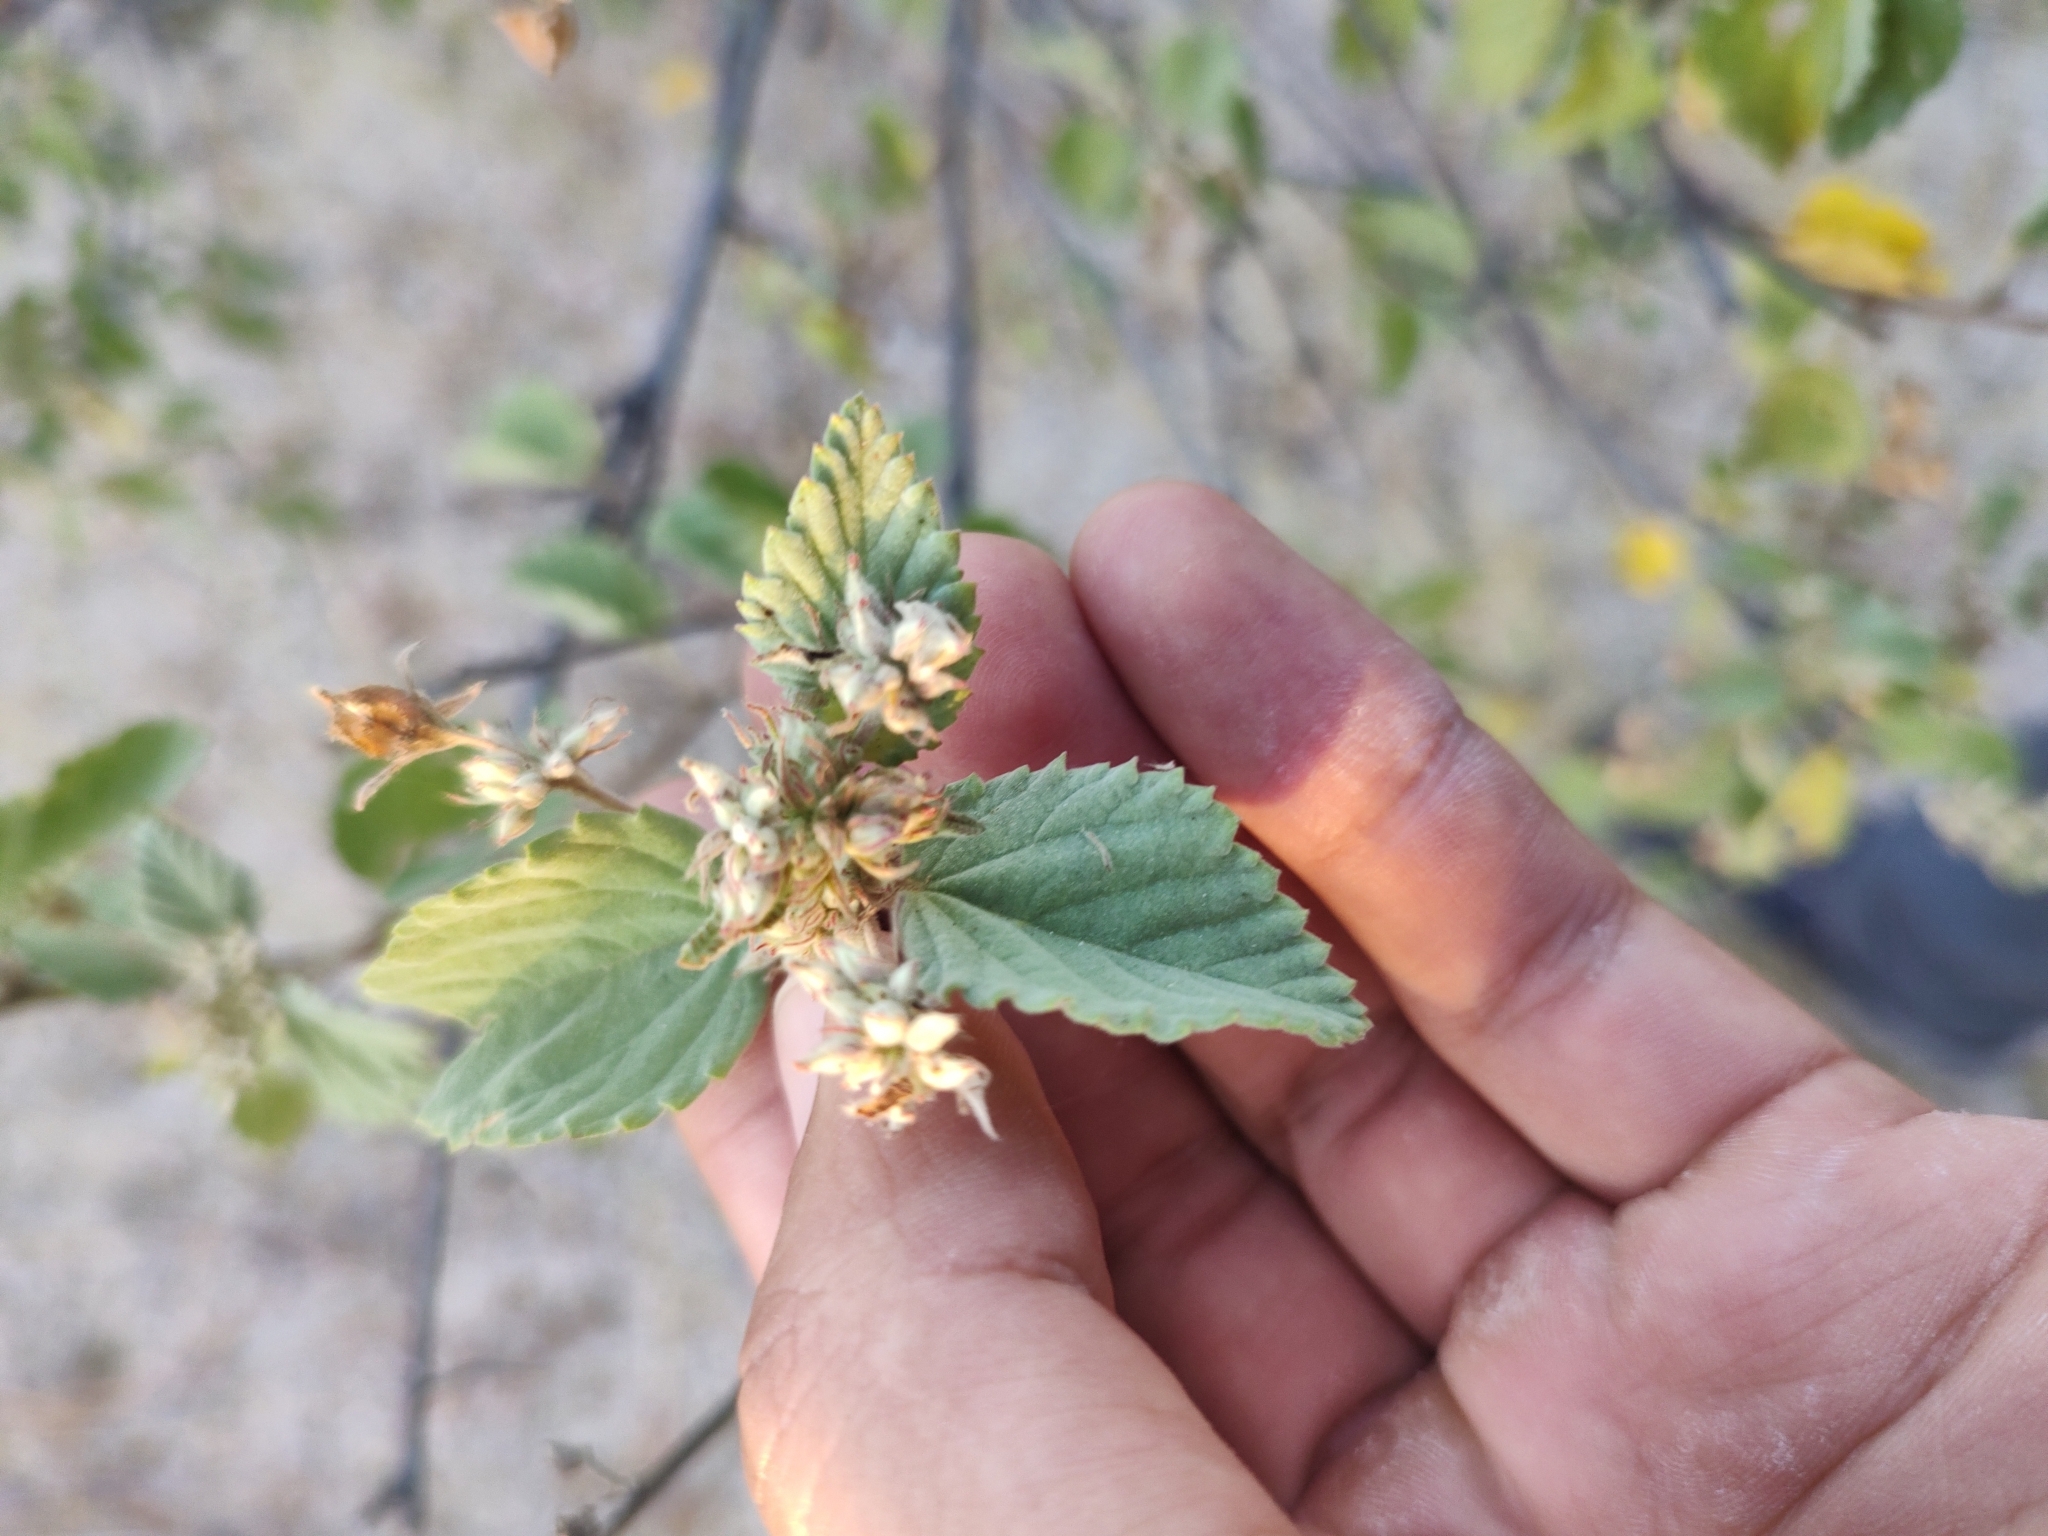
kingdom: Plantae
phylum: Tracheophyta
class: Magnoliopsida
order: Malvales
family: Malvaceae
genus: Melochia
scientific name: Melochia tomentosa
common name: Black torch
